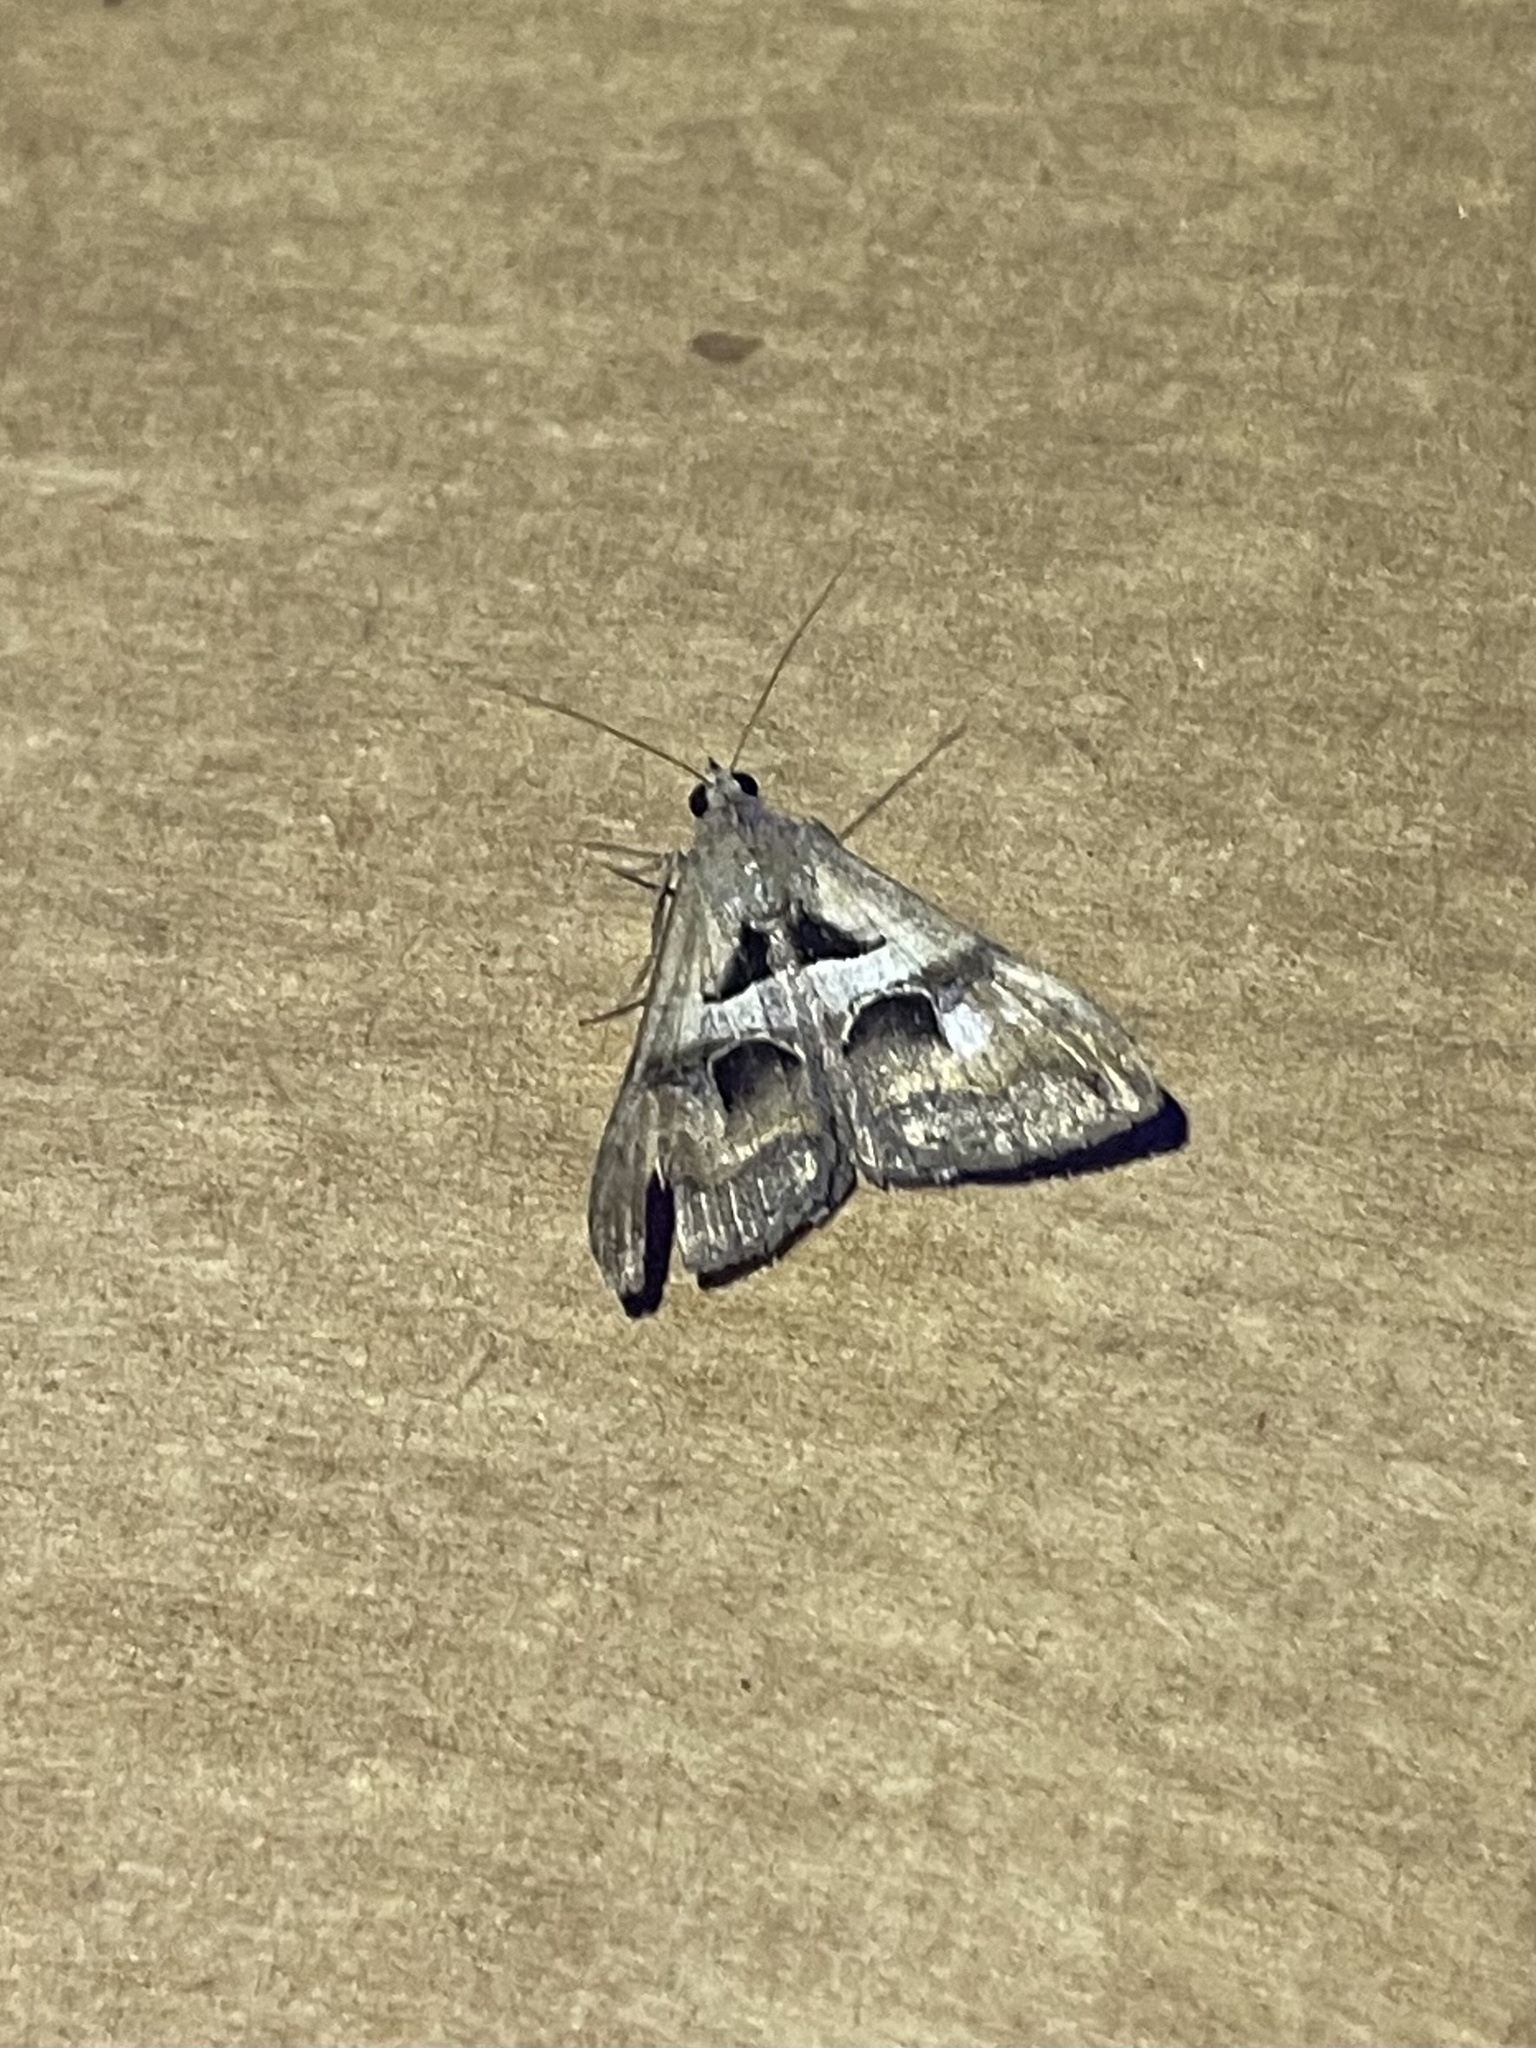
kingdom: Animalia
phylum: Arthropoda
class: Insecta
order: Lepidoptera
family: Erebidae
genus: Melipotis
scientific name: Melipotis cellaris
